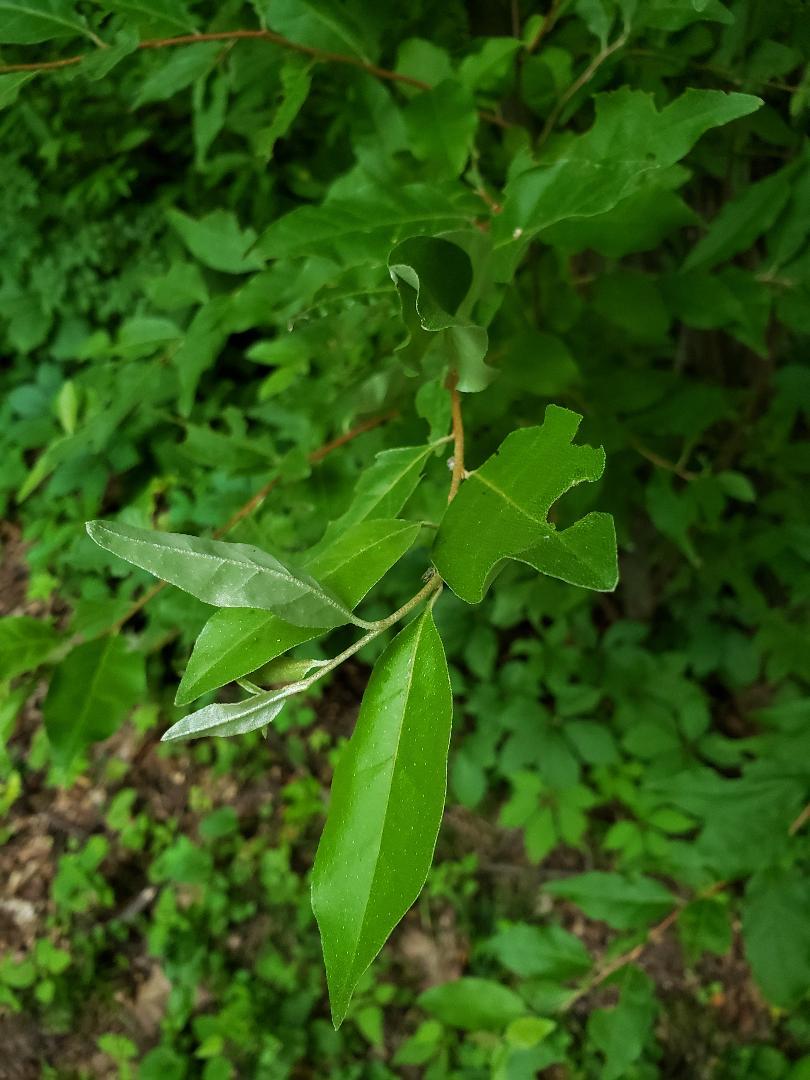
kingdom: Plantae
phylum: Tracheophyta
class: Magnoliopsida
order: Rosales
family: Elaeagnaceae
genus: Elaeagnus
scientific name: Elaeagnus umbellata
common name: Autumn olive
